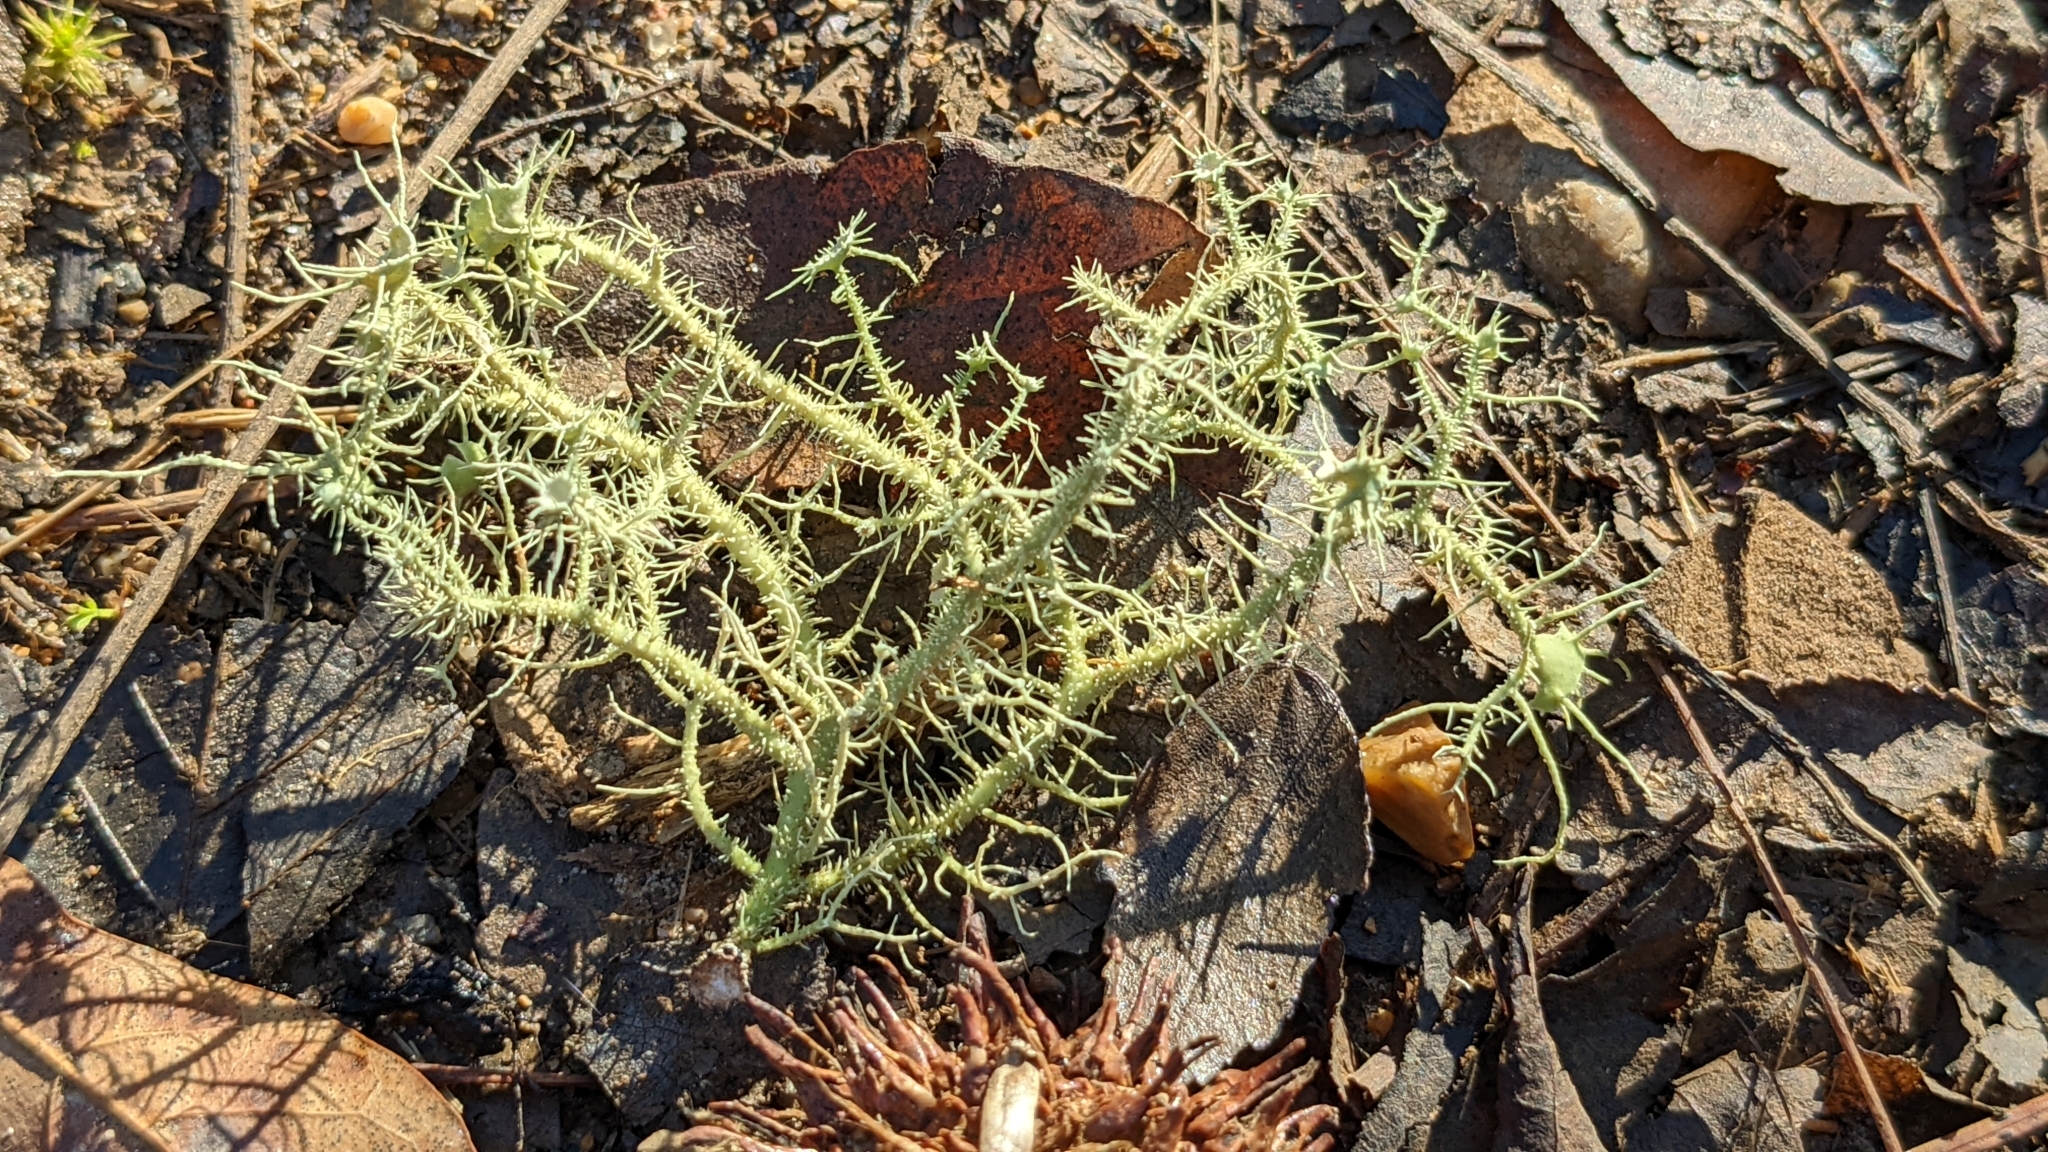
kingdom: Fungi
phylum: Ascomycota
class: Lecanoromycetes
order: Lecanorales
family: Parmeliaceae
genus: Usnea
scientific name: Usnea strigosa
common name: Bushy beard lichen
